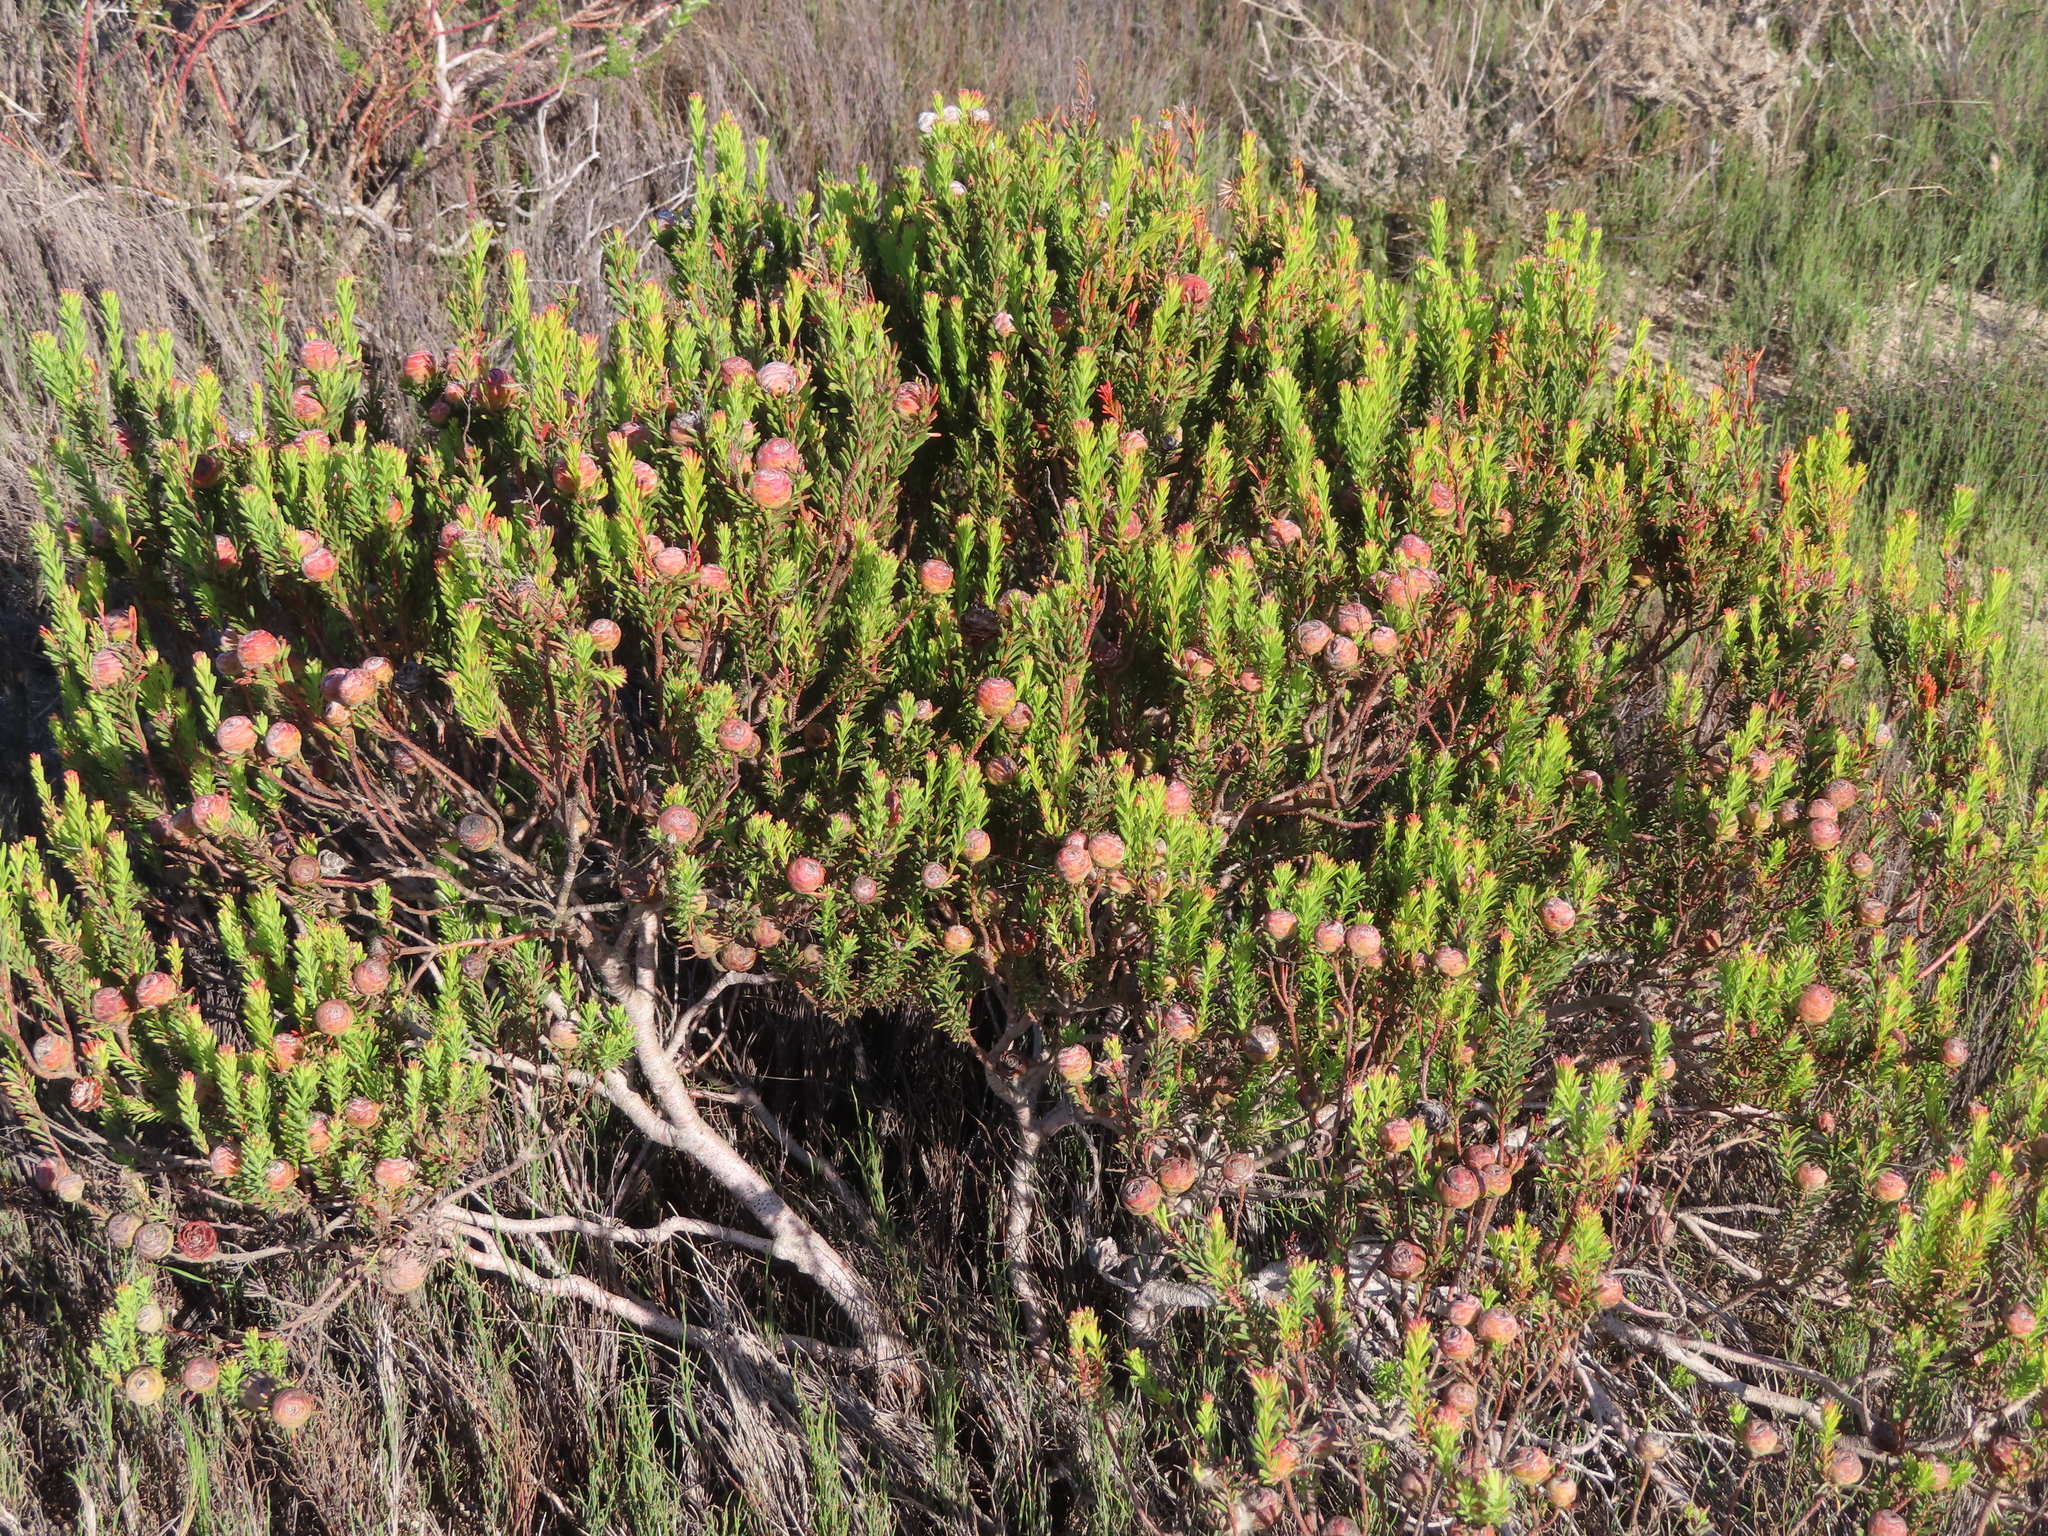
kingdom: Plantae
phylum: Tracheophyta
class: Magnoliopsida
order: Proteales
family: Proteaceae
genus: Leucadendron
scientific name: Leucadendron linifolium
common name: Line-leaf conebush
